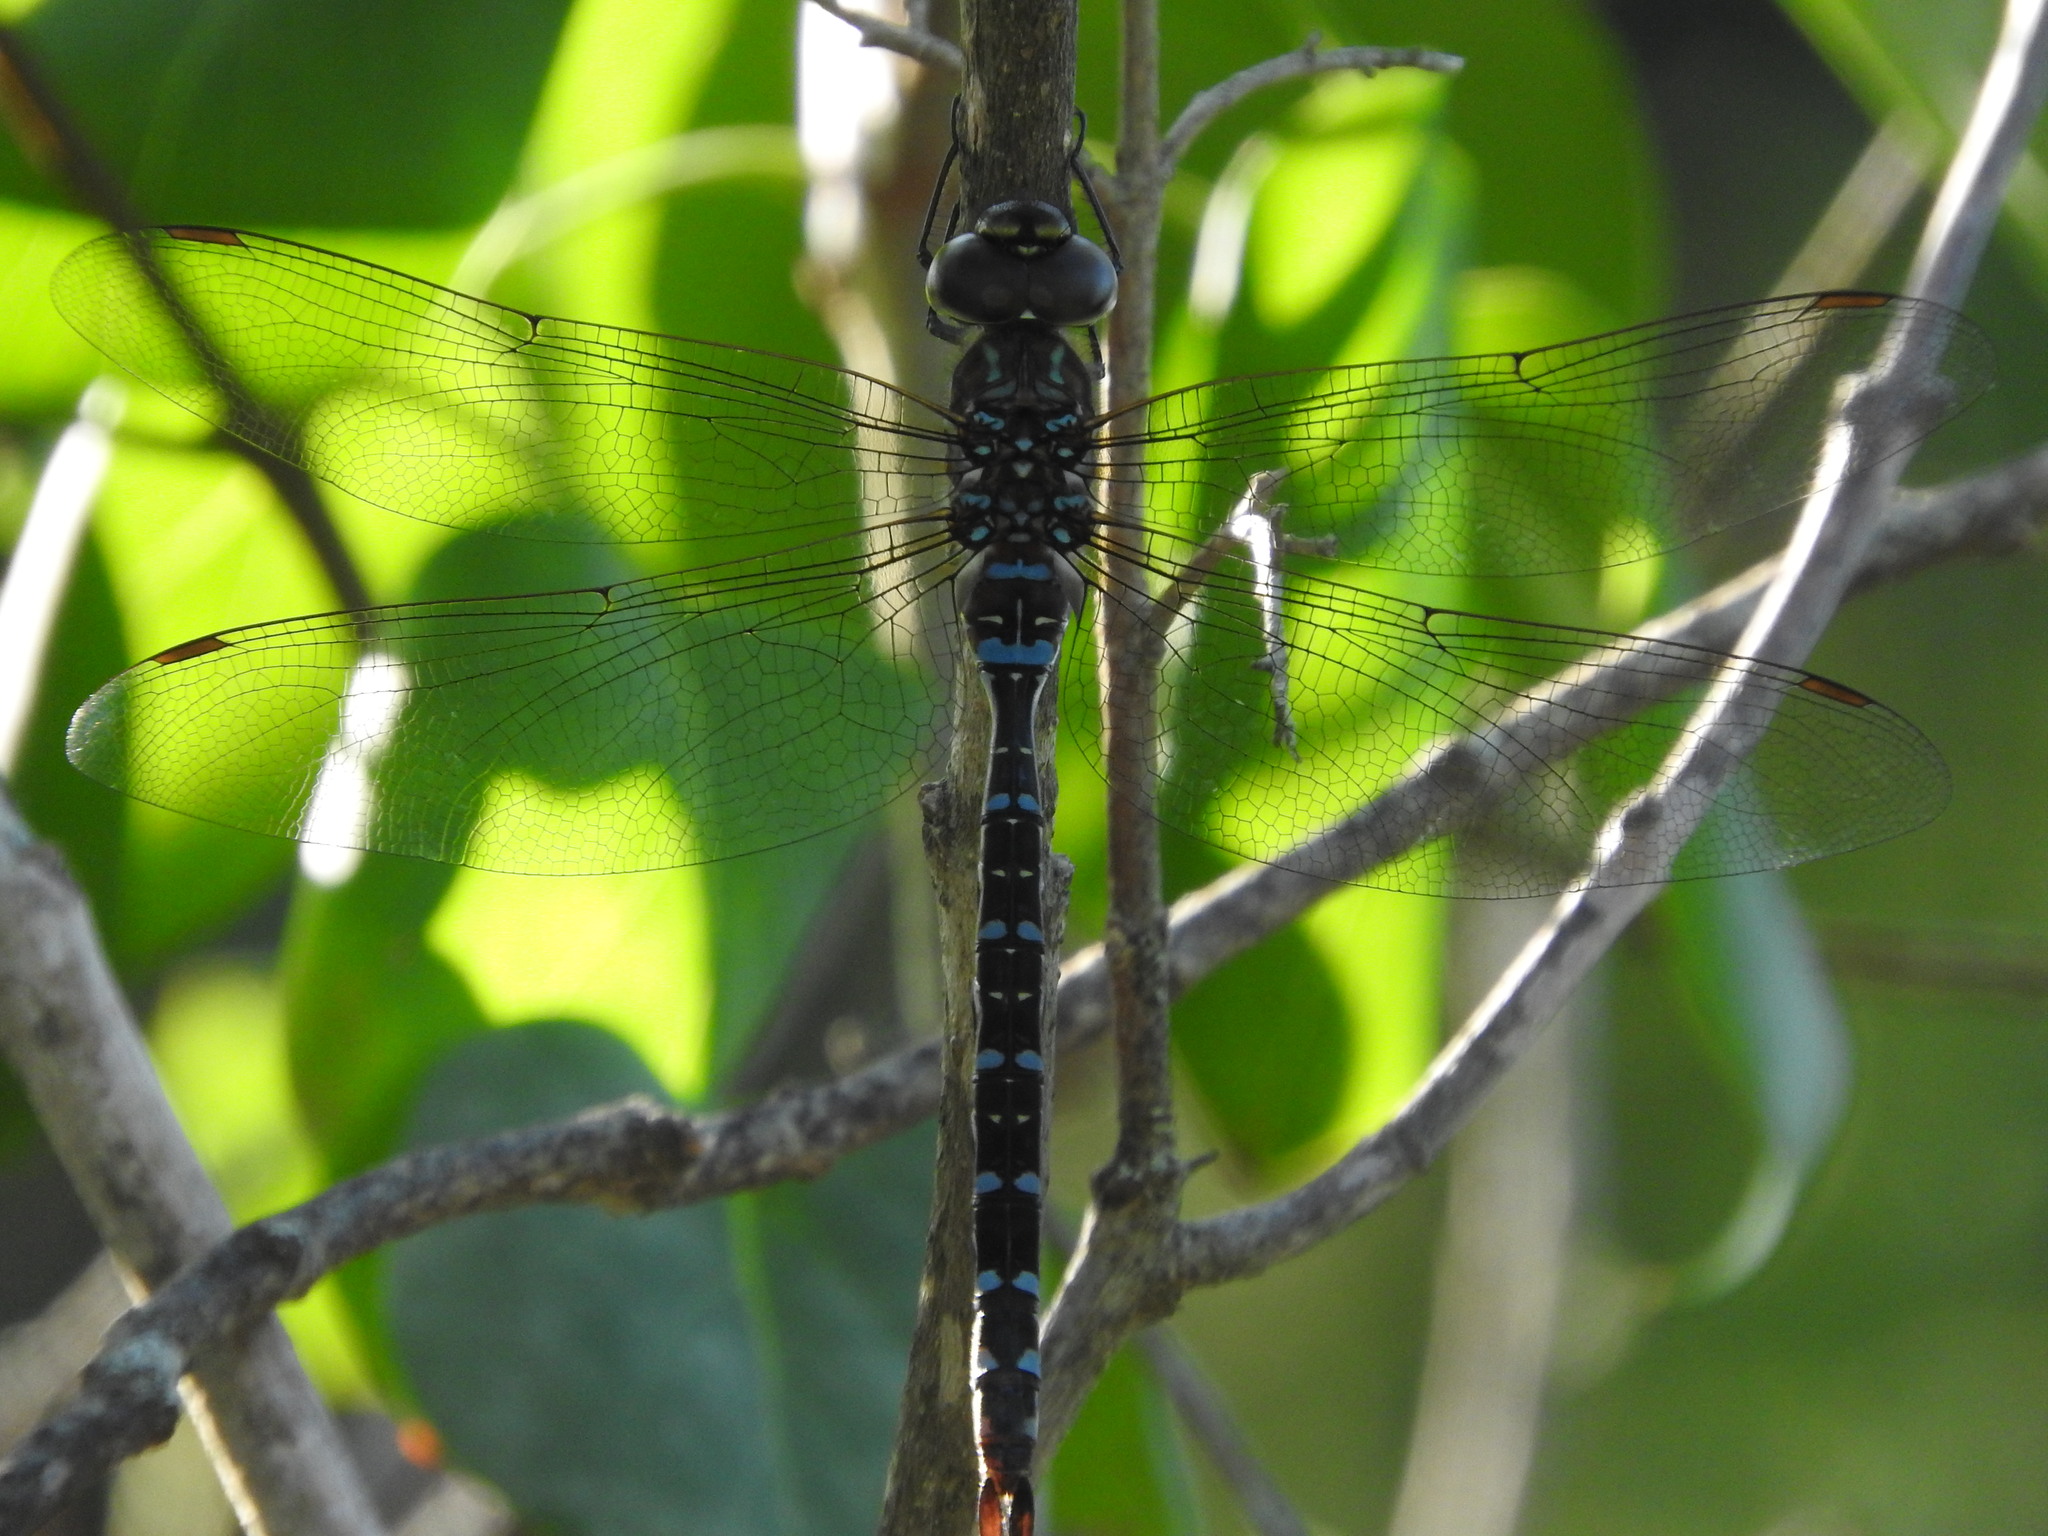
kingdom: Animalia
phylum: Arthropoda
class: Insecta
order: Odonata
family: Aeshnidae
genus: Aeshna
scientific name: Aeshna tuberculifera
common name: Aeschne à tubercules
